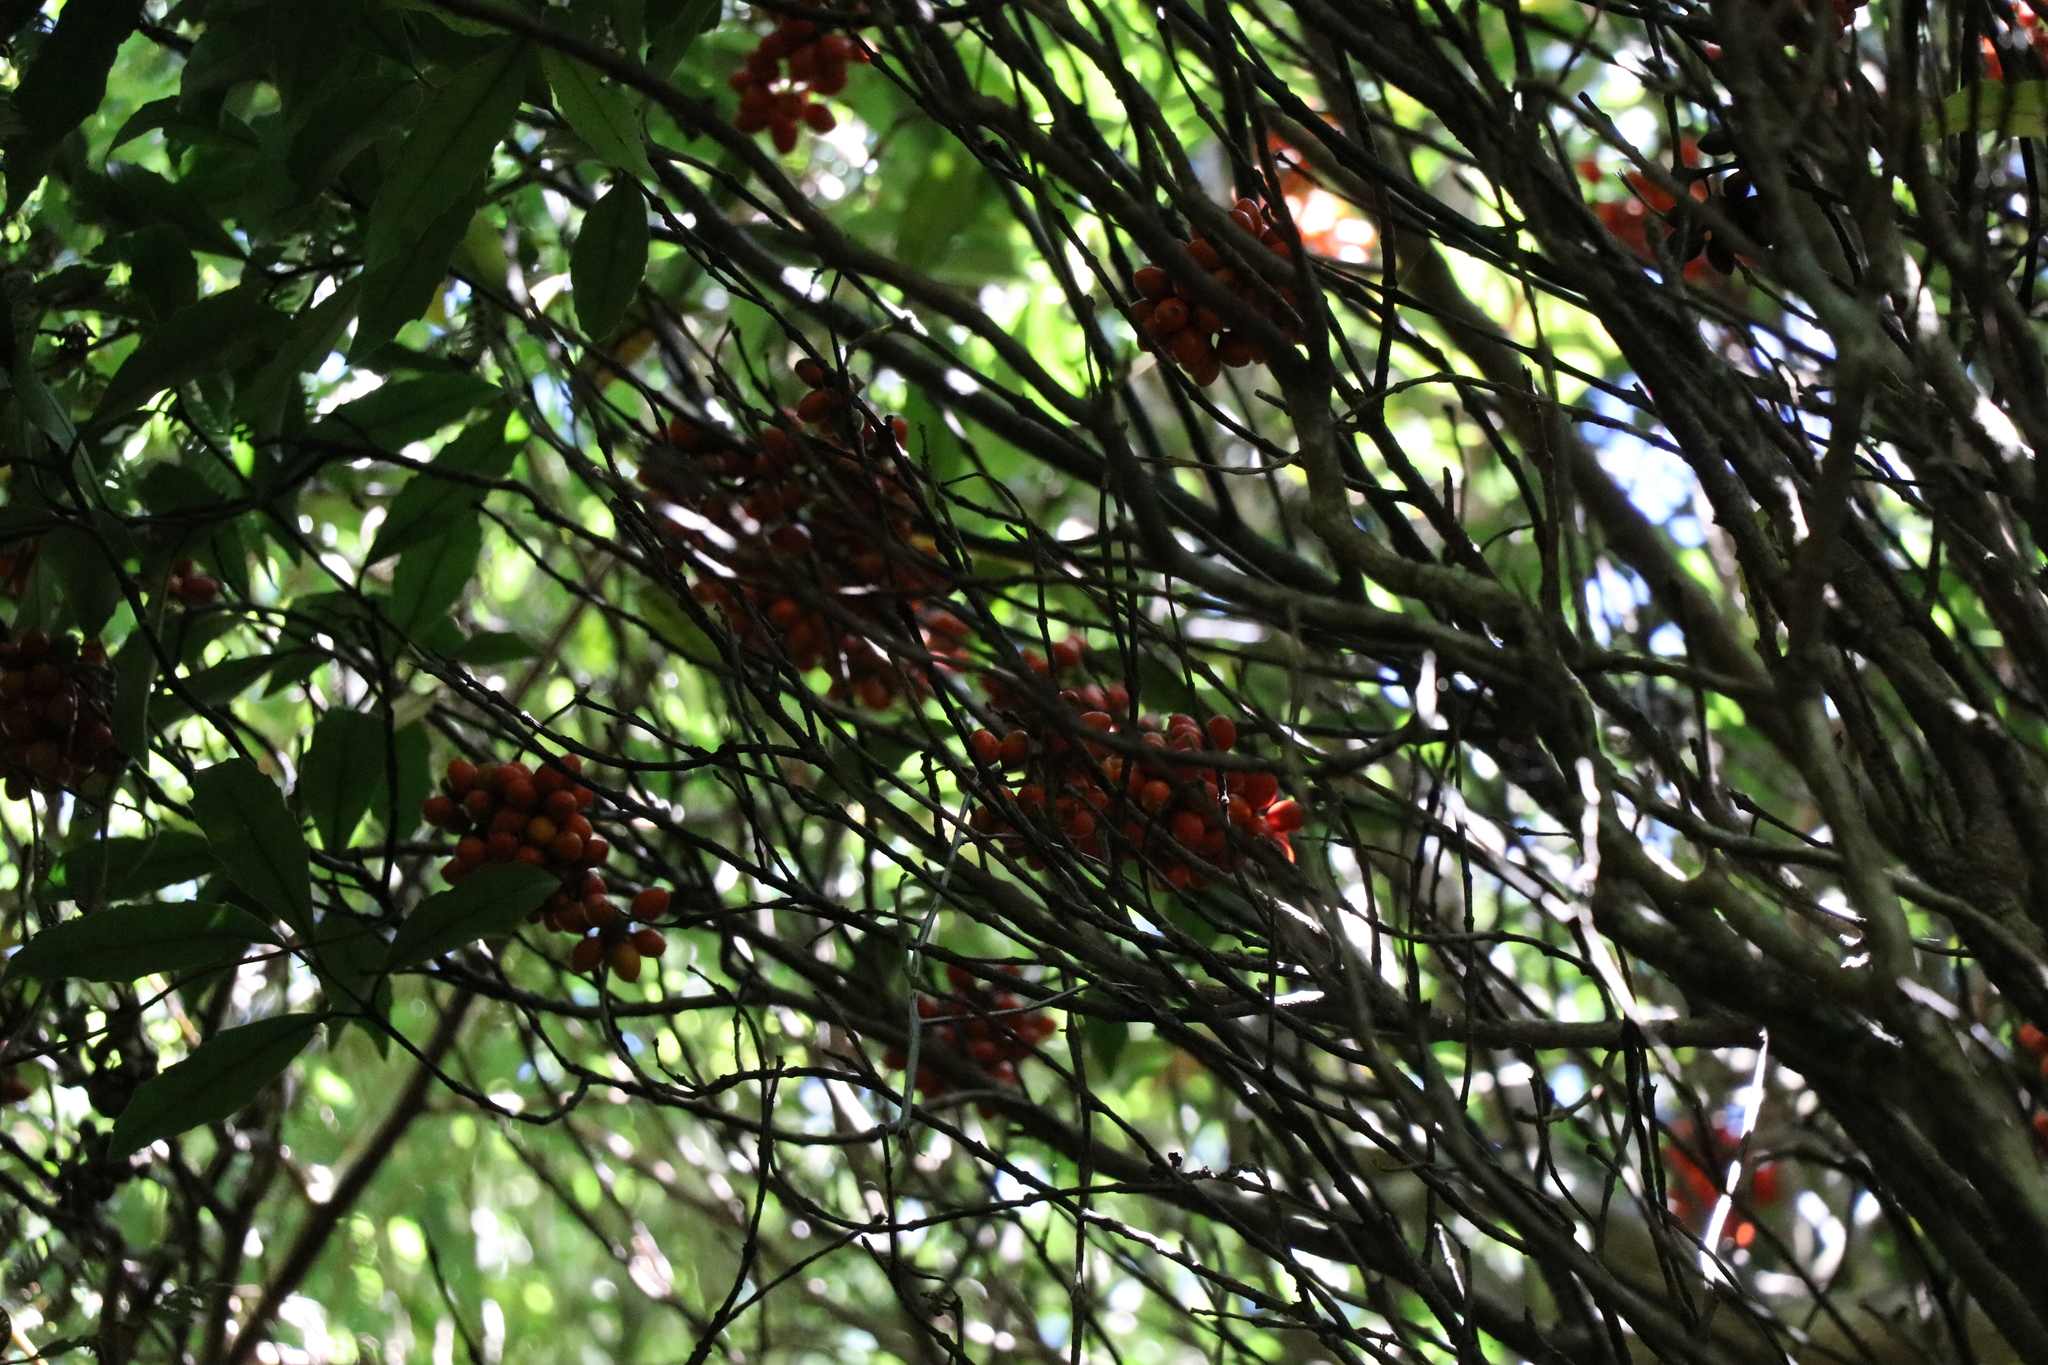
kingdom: Plantae
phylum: Tracheophyta
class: Magnoliopsida
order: Laurales
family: Monimiaceae
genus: Hedycarya
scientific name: Hedycarya arborea
